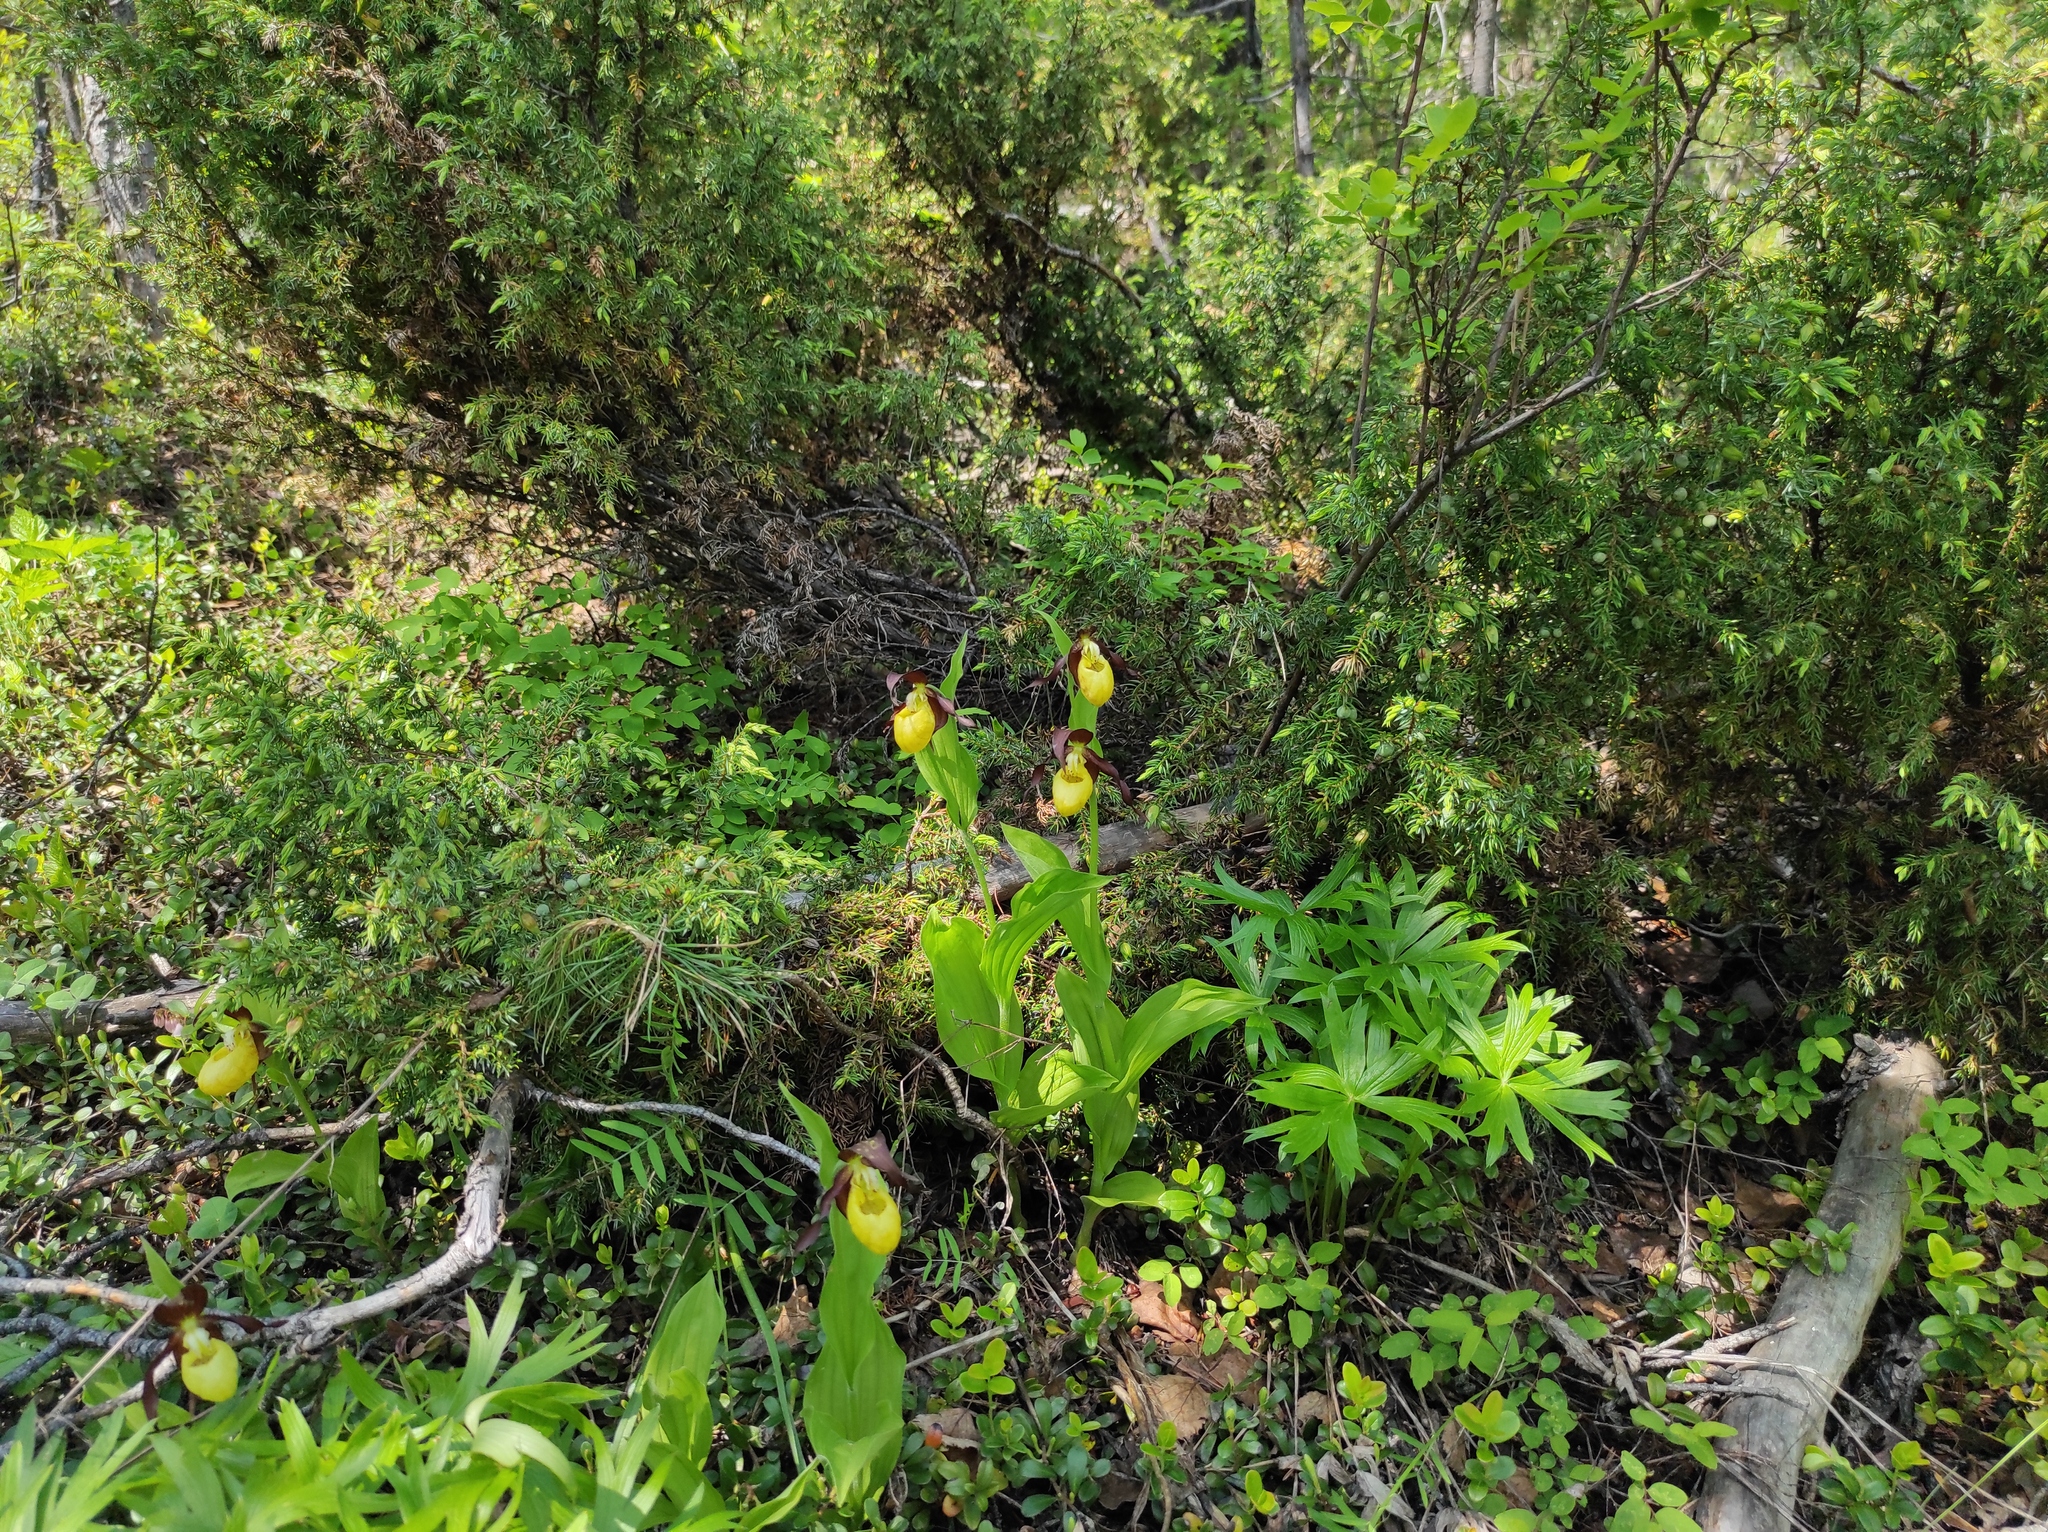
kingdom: Plantae
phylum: Tracheophyta
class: Magnoliopsida
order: Ranunculales
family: Ranunculaceae
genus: Pulsatilla
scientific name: Pulsatilla patens
